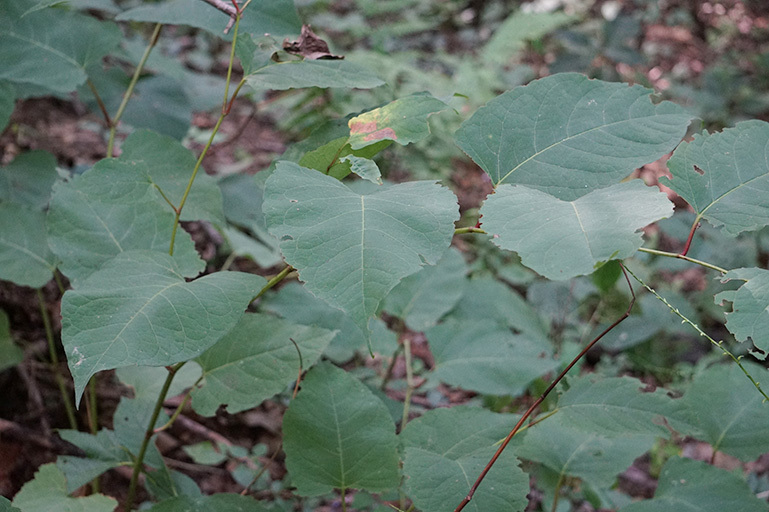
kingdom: Plantae
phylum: Tracheophyta
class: Magnoliopsida
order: Caryophyllales
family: Polygonaceae
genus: Reynoutria
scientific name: Reynoutria japonica
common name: Japanese knotweed
